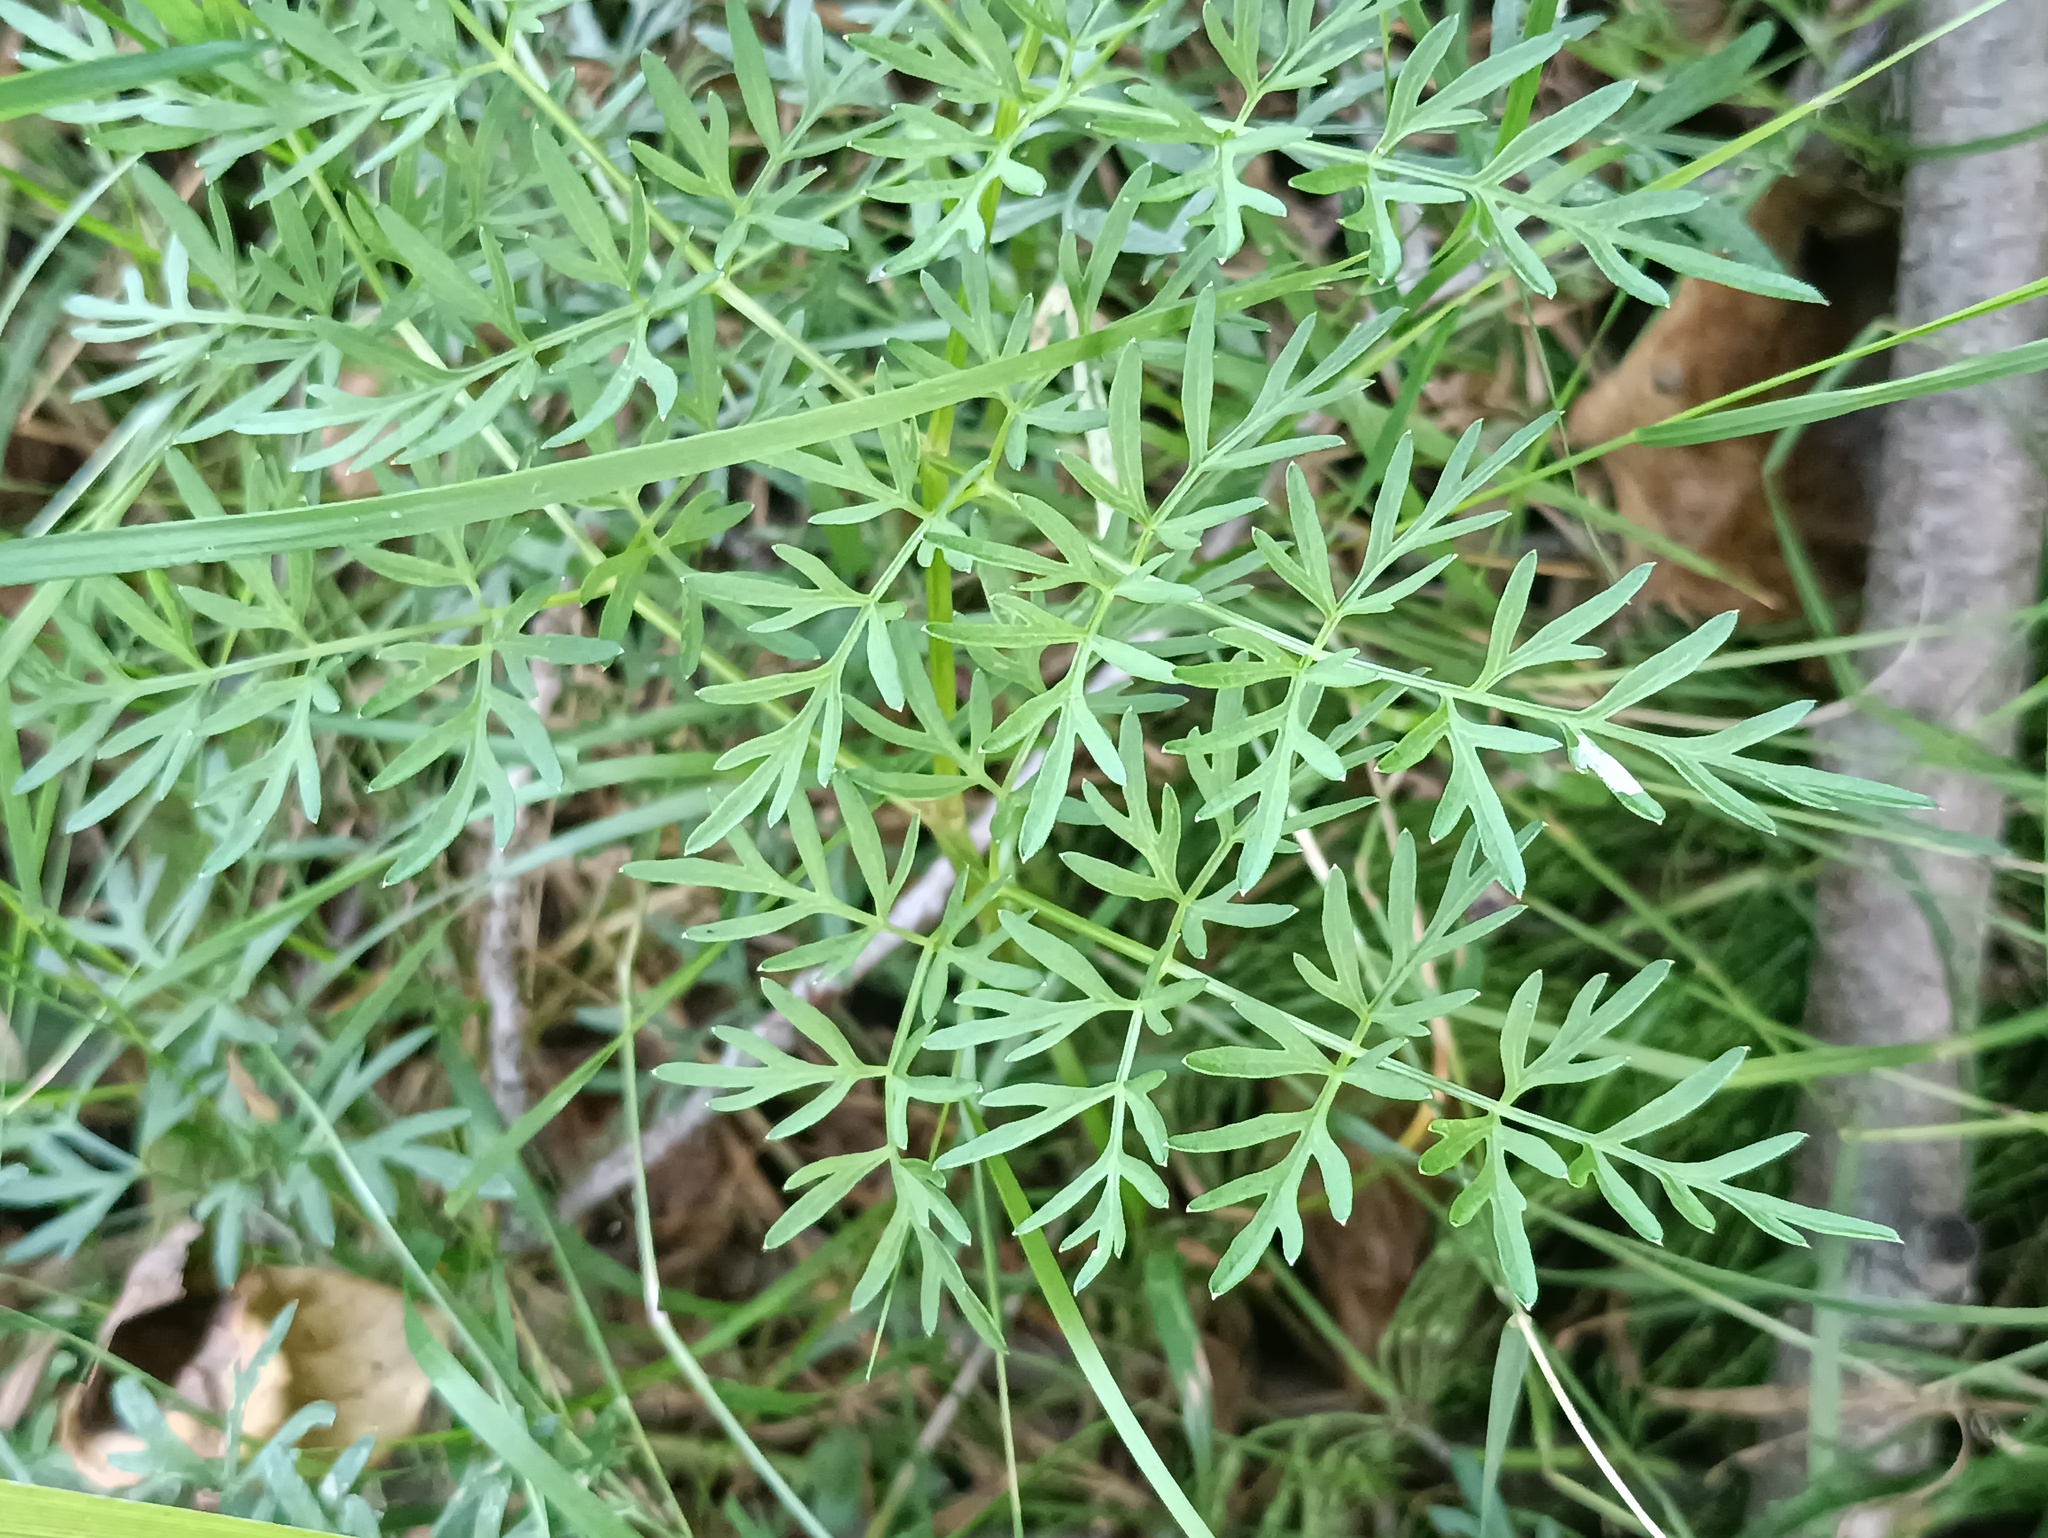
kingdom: Plantae
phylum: Tracheophyta
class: Magnoliopsida
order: Apiales
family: Apiaceae
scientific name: Apiaceae
